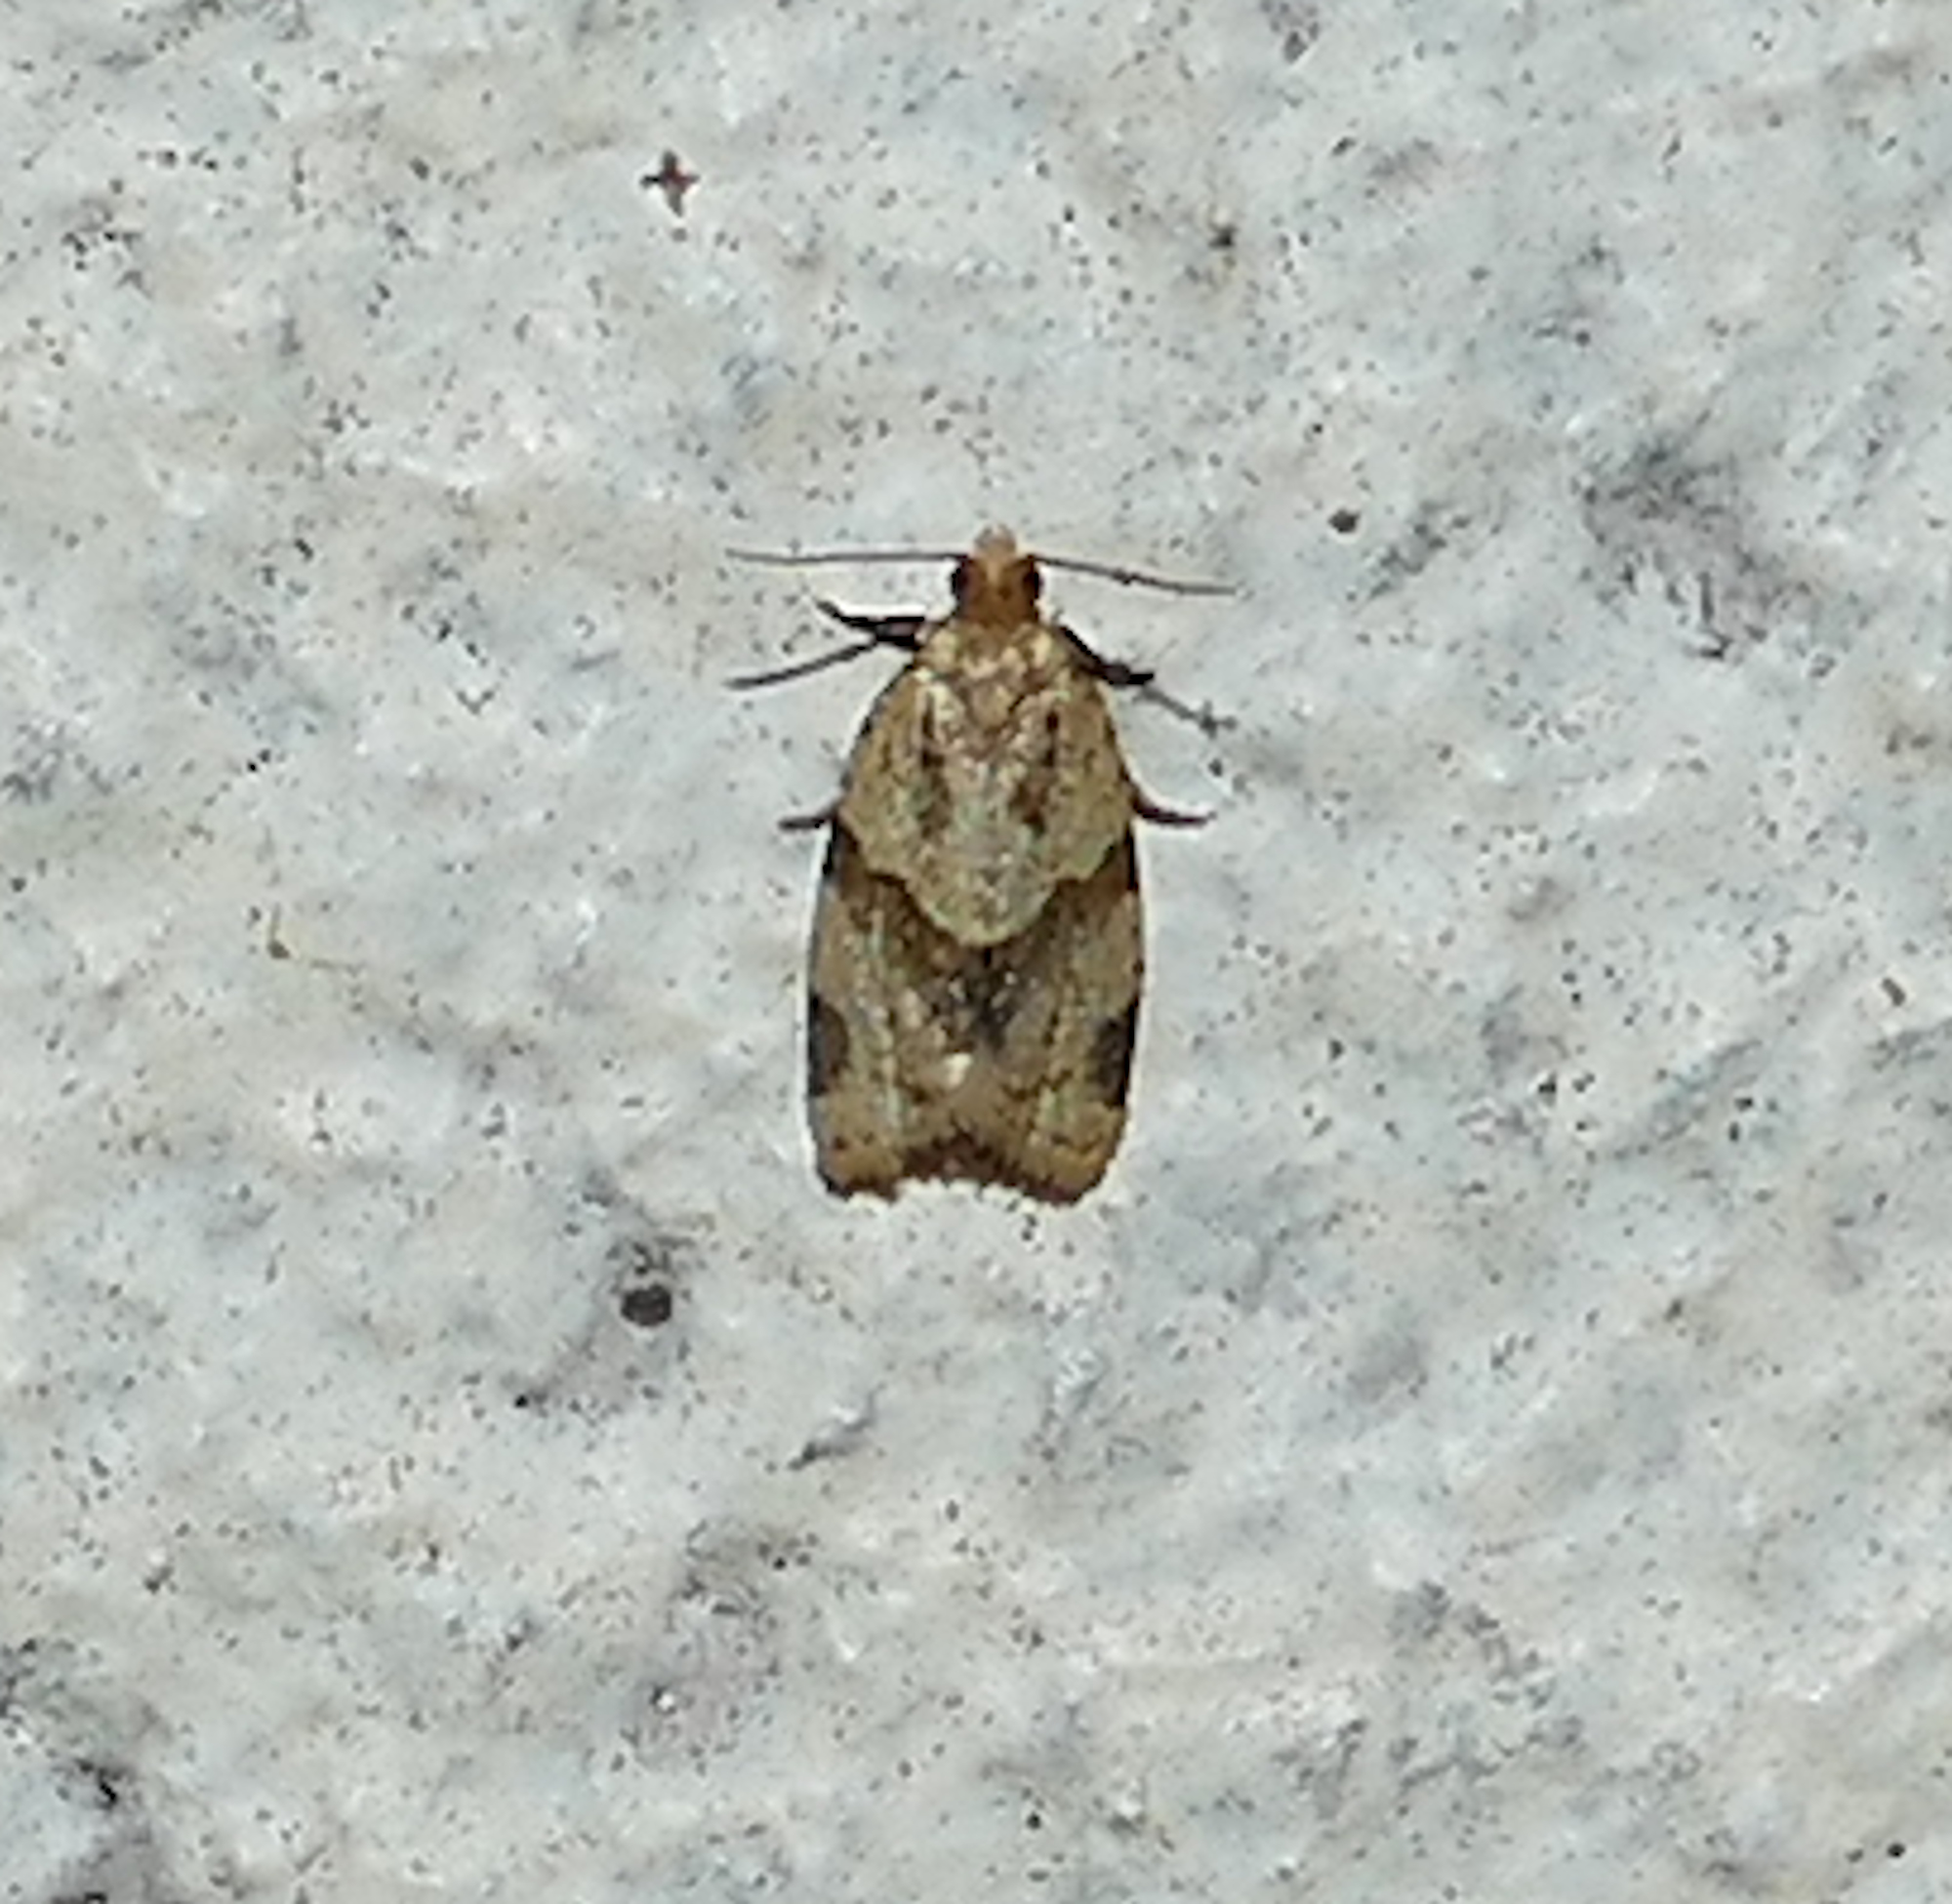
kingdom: Animalia
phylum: Arthropoda
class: Insecta
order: Lepidoptera
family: Tortricidae
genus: Clepsis
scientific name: Clepsis peritana
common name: Garden tortrix
